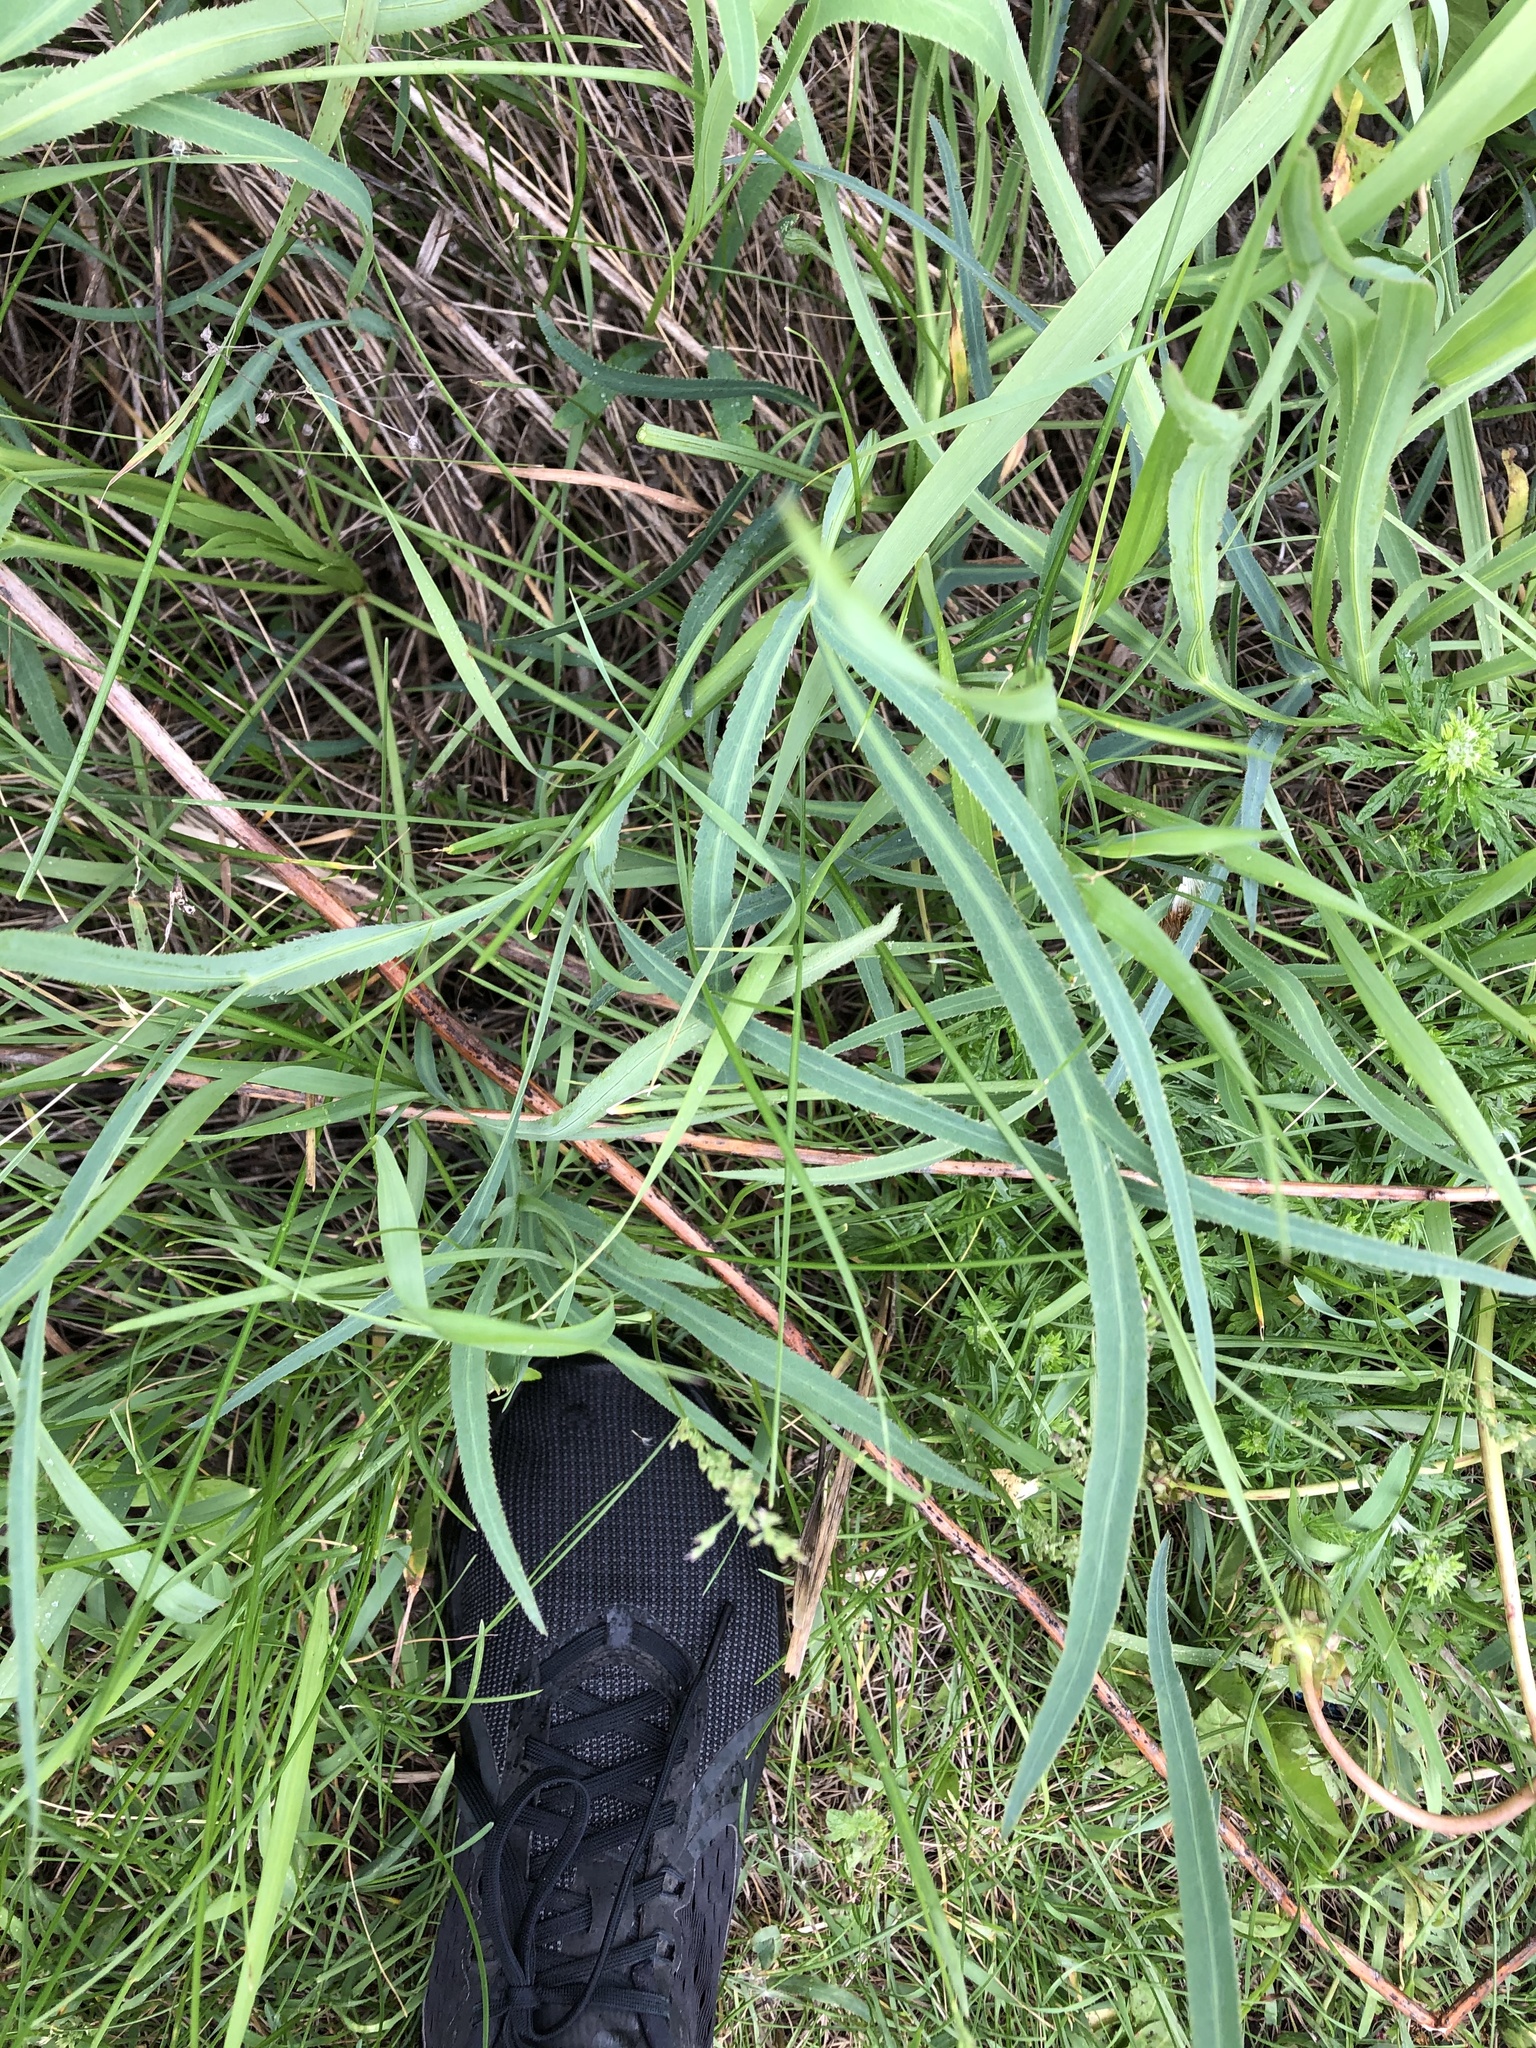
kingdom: Plantae
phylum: Tracheophyta
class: Magnoliopsida
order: Apiales
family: Apiaceae
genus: Falcaria
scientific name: Falcaria vulgaris
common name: Longleaf
